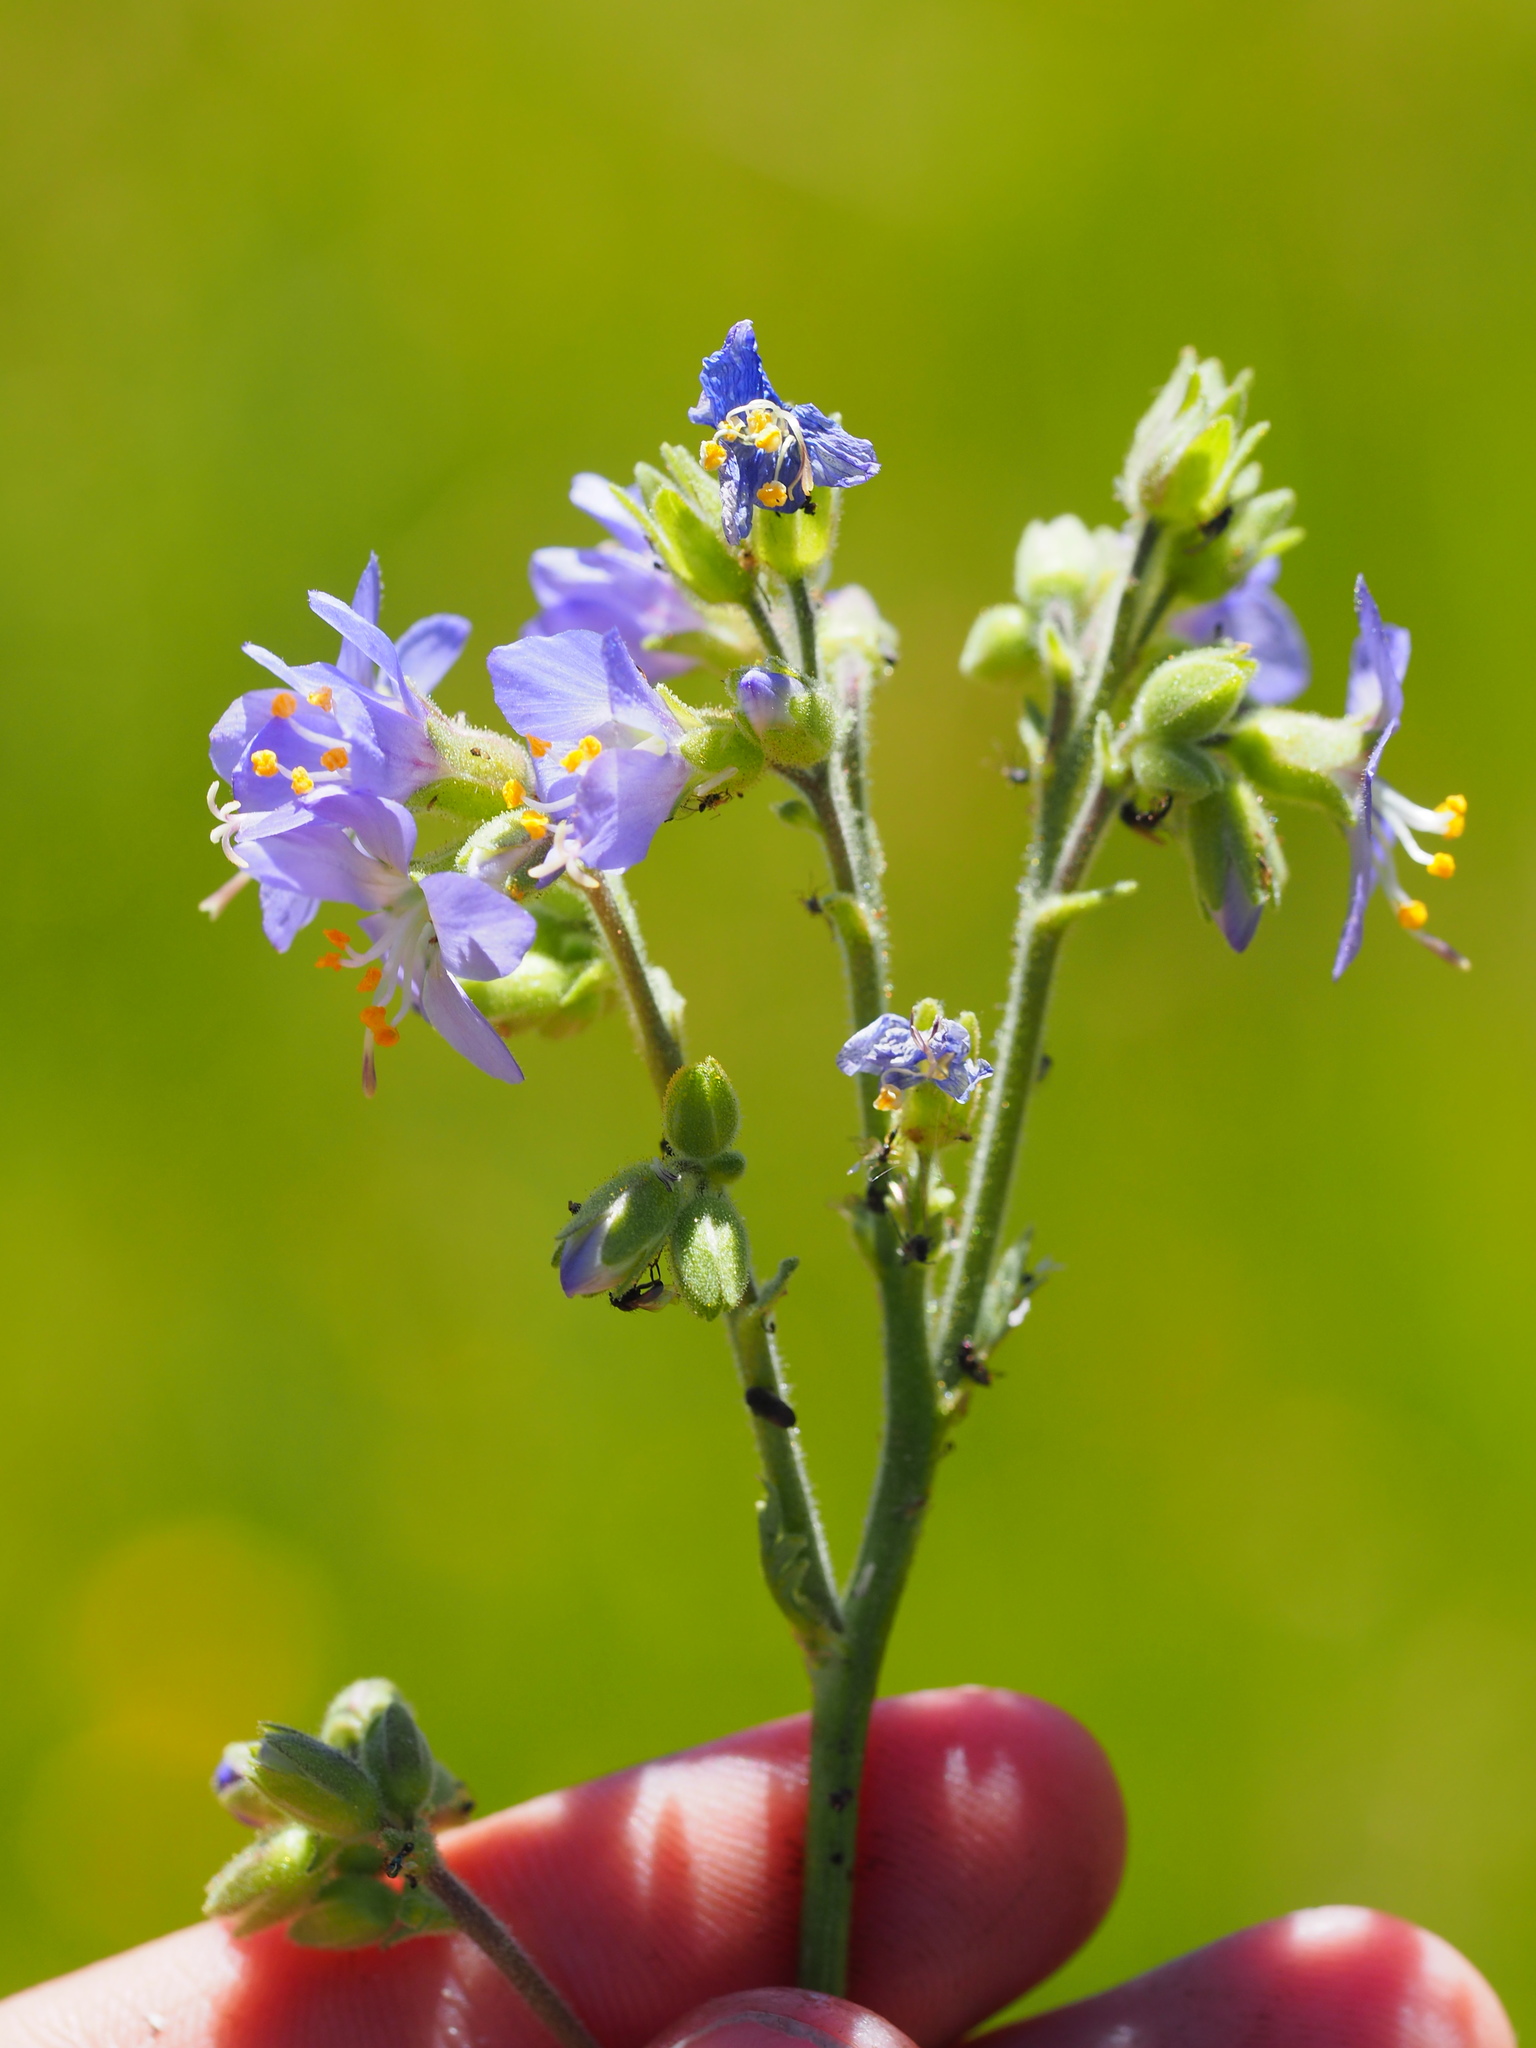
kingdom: Plantae
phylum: Tracheophyta
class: Magnoliopsida
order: Ericales
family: Polemoniaceae
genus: Polemonium
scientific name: Polemonium occidentale
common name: Western jacob's-ladder
